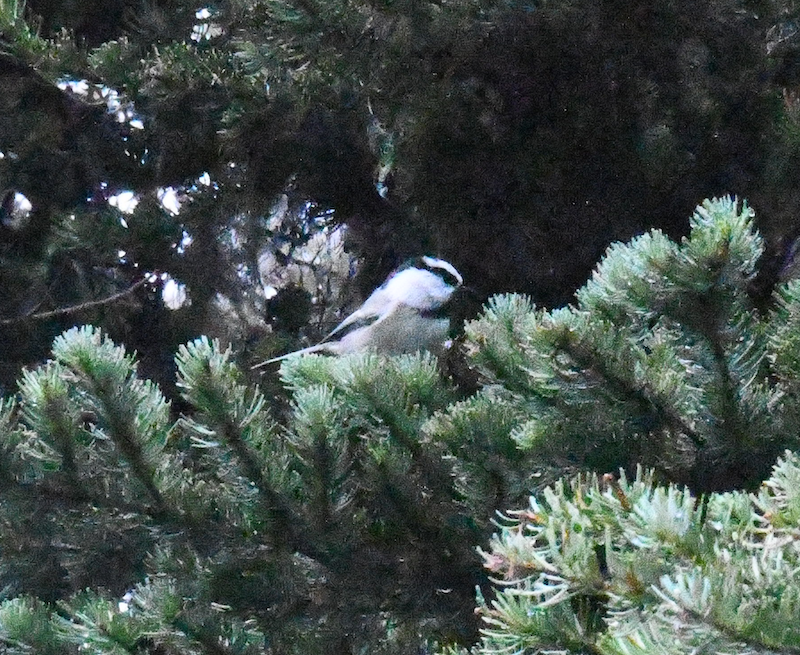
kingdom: Animalia
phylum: Chordata
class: Aves
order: Passeriformes
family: Paridae
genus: Poecile
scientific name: Poecile gambeli
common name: Mountain chickadee
